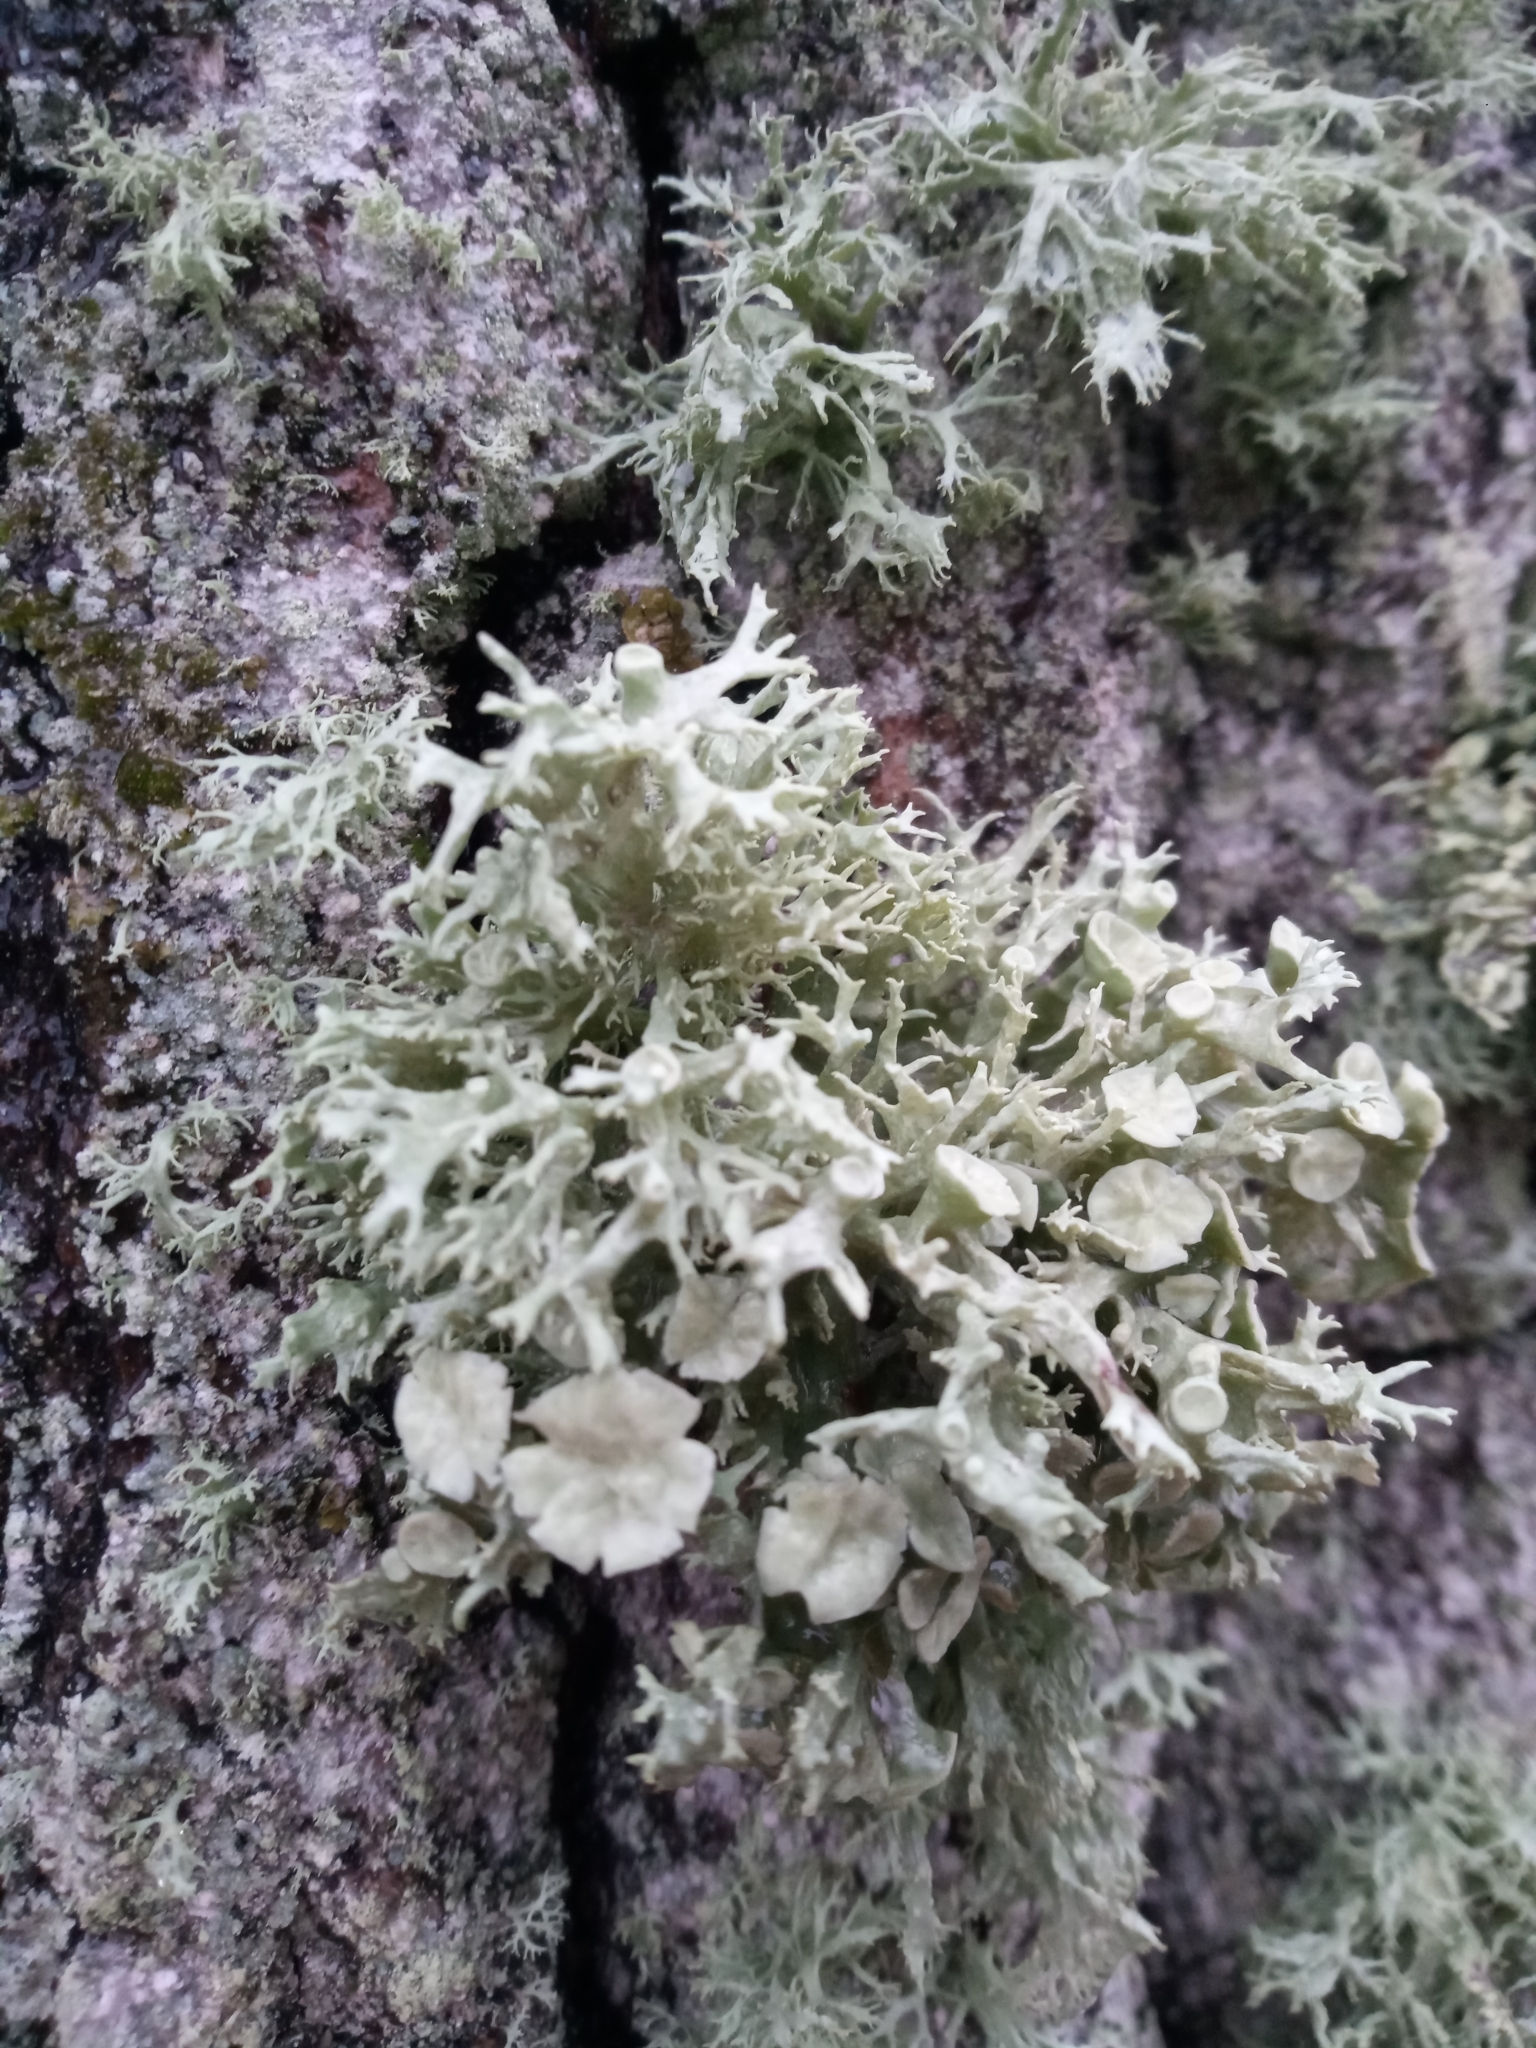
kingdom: Fungi
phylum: Ascomycota
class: Lecanoromycetes
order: Lecanorales
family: Ramalinaceae
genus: Ramalina
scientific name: Ramalina fastigiata
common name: Dotted ribbon lichen
